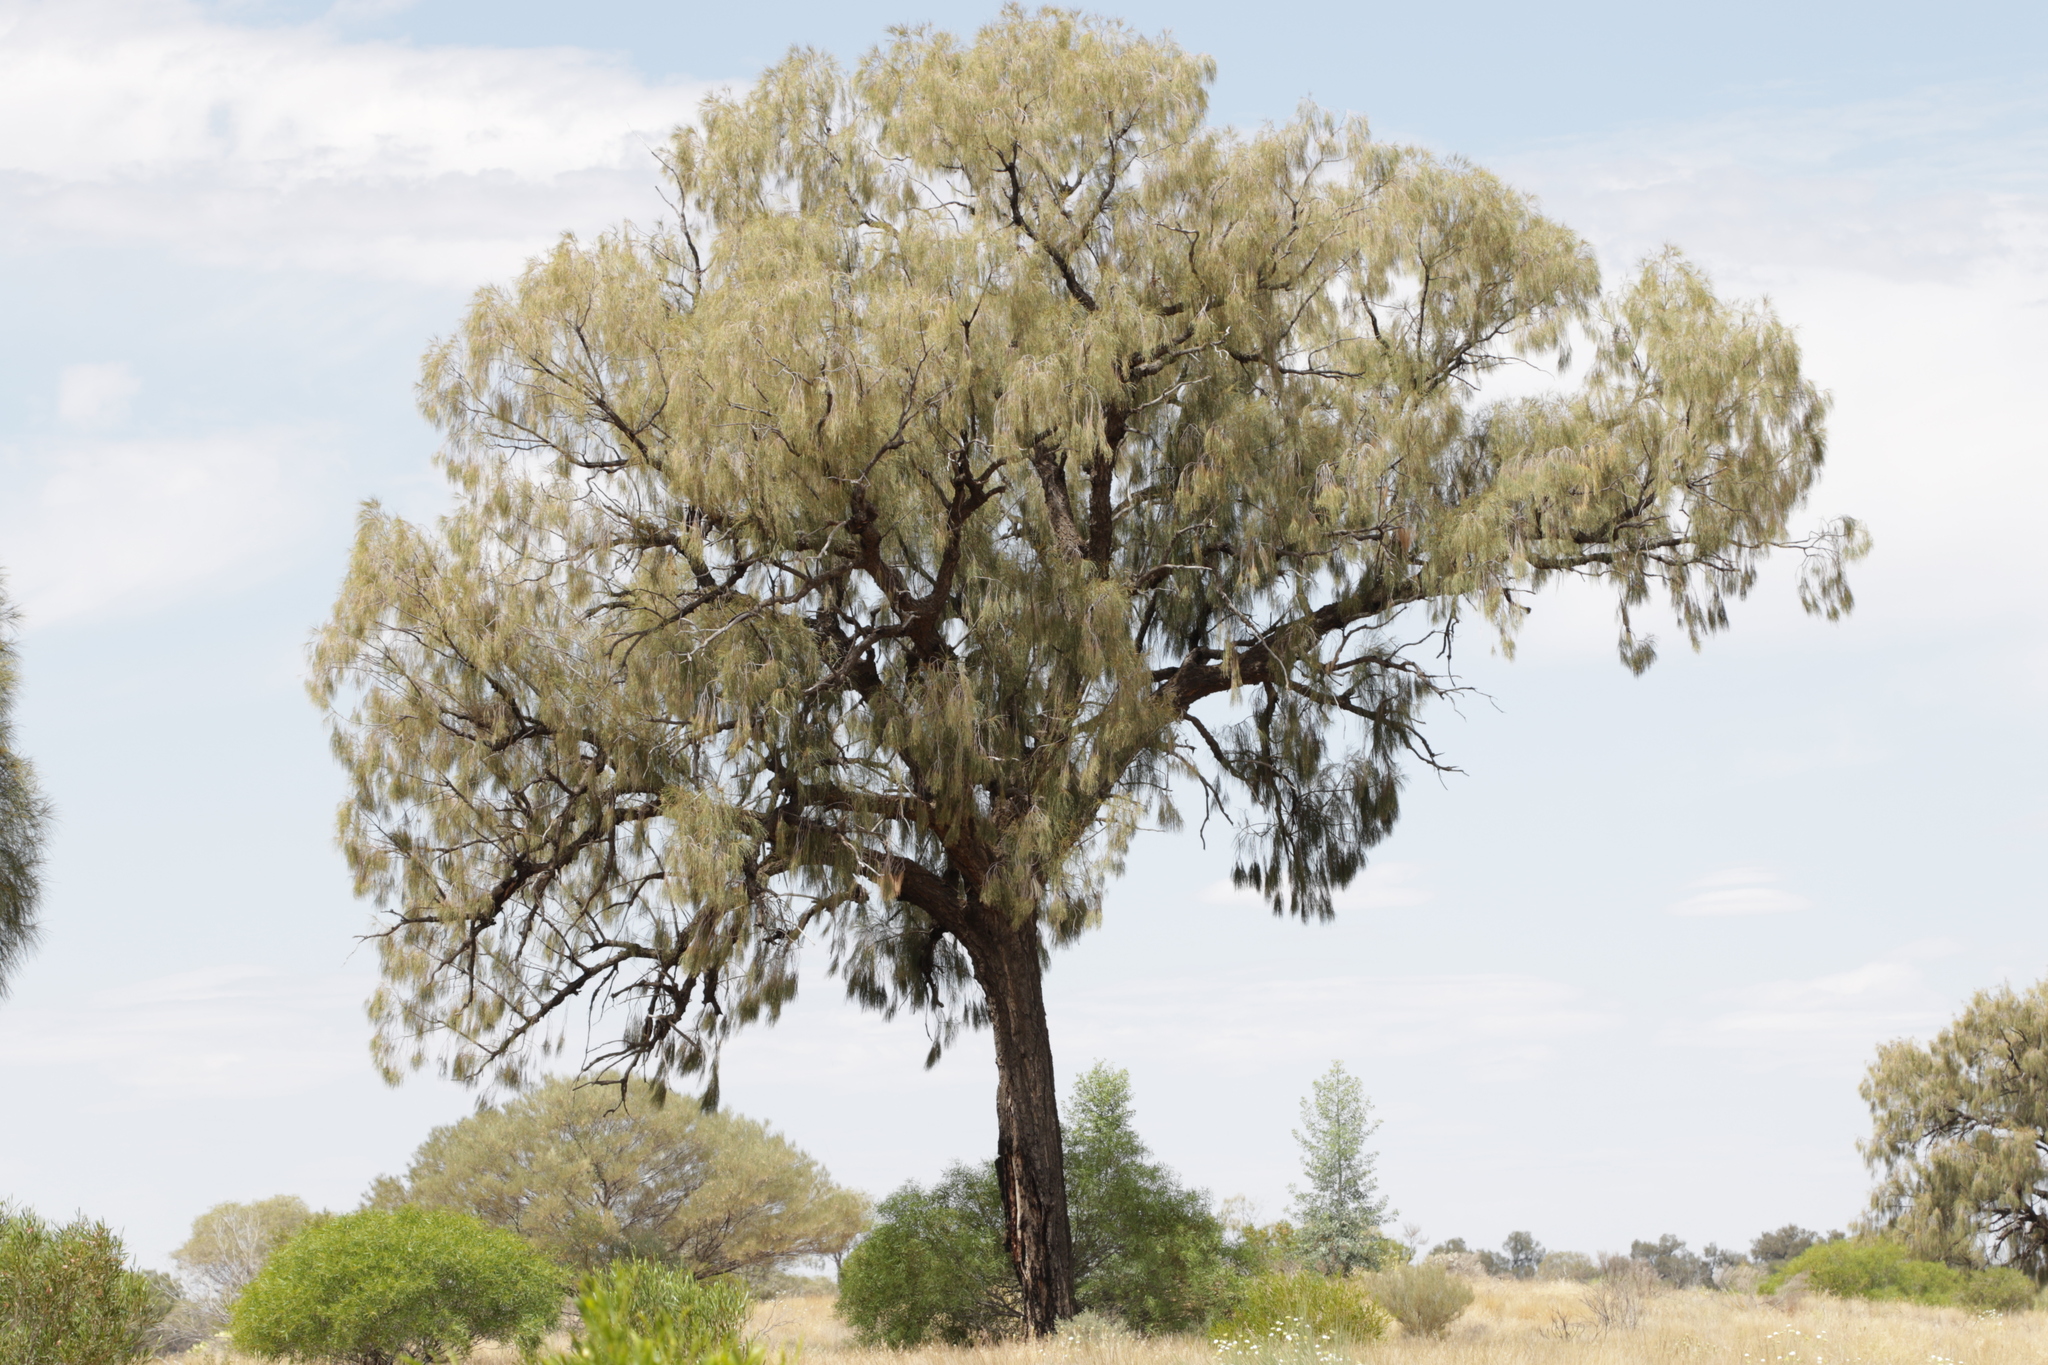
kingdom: Plantae
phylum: Tracheophyta
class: Magnoliopsida
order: Fagales
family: Casuarinaceae
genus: Allocasuarina
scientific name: Allocasuarina decaisneana
